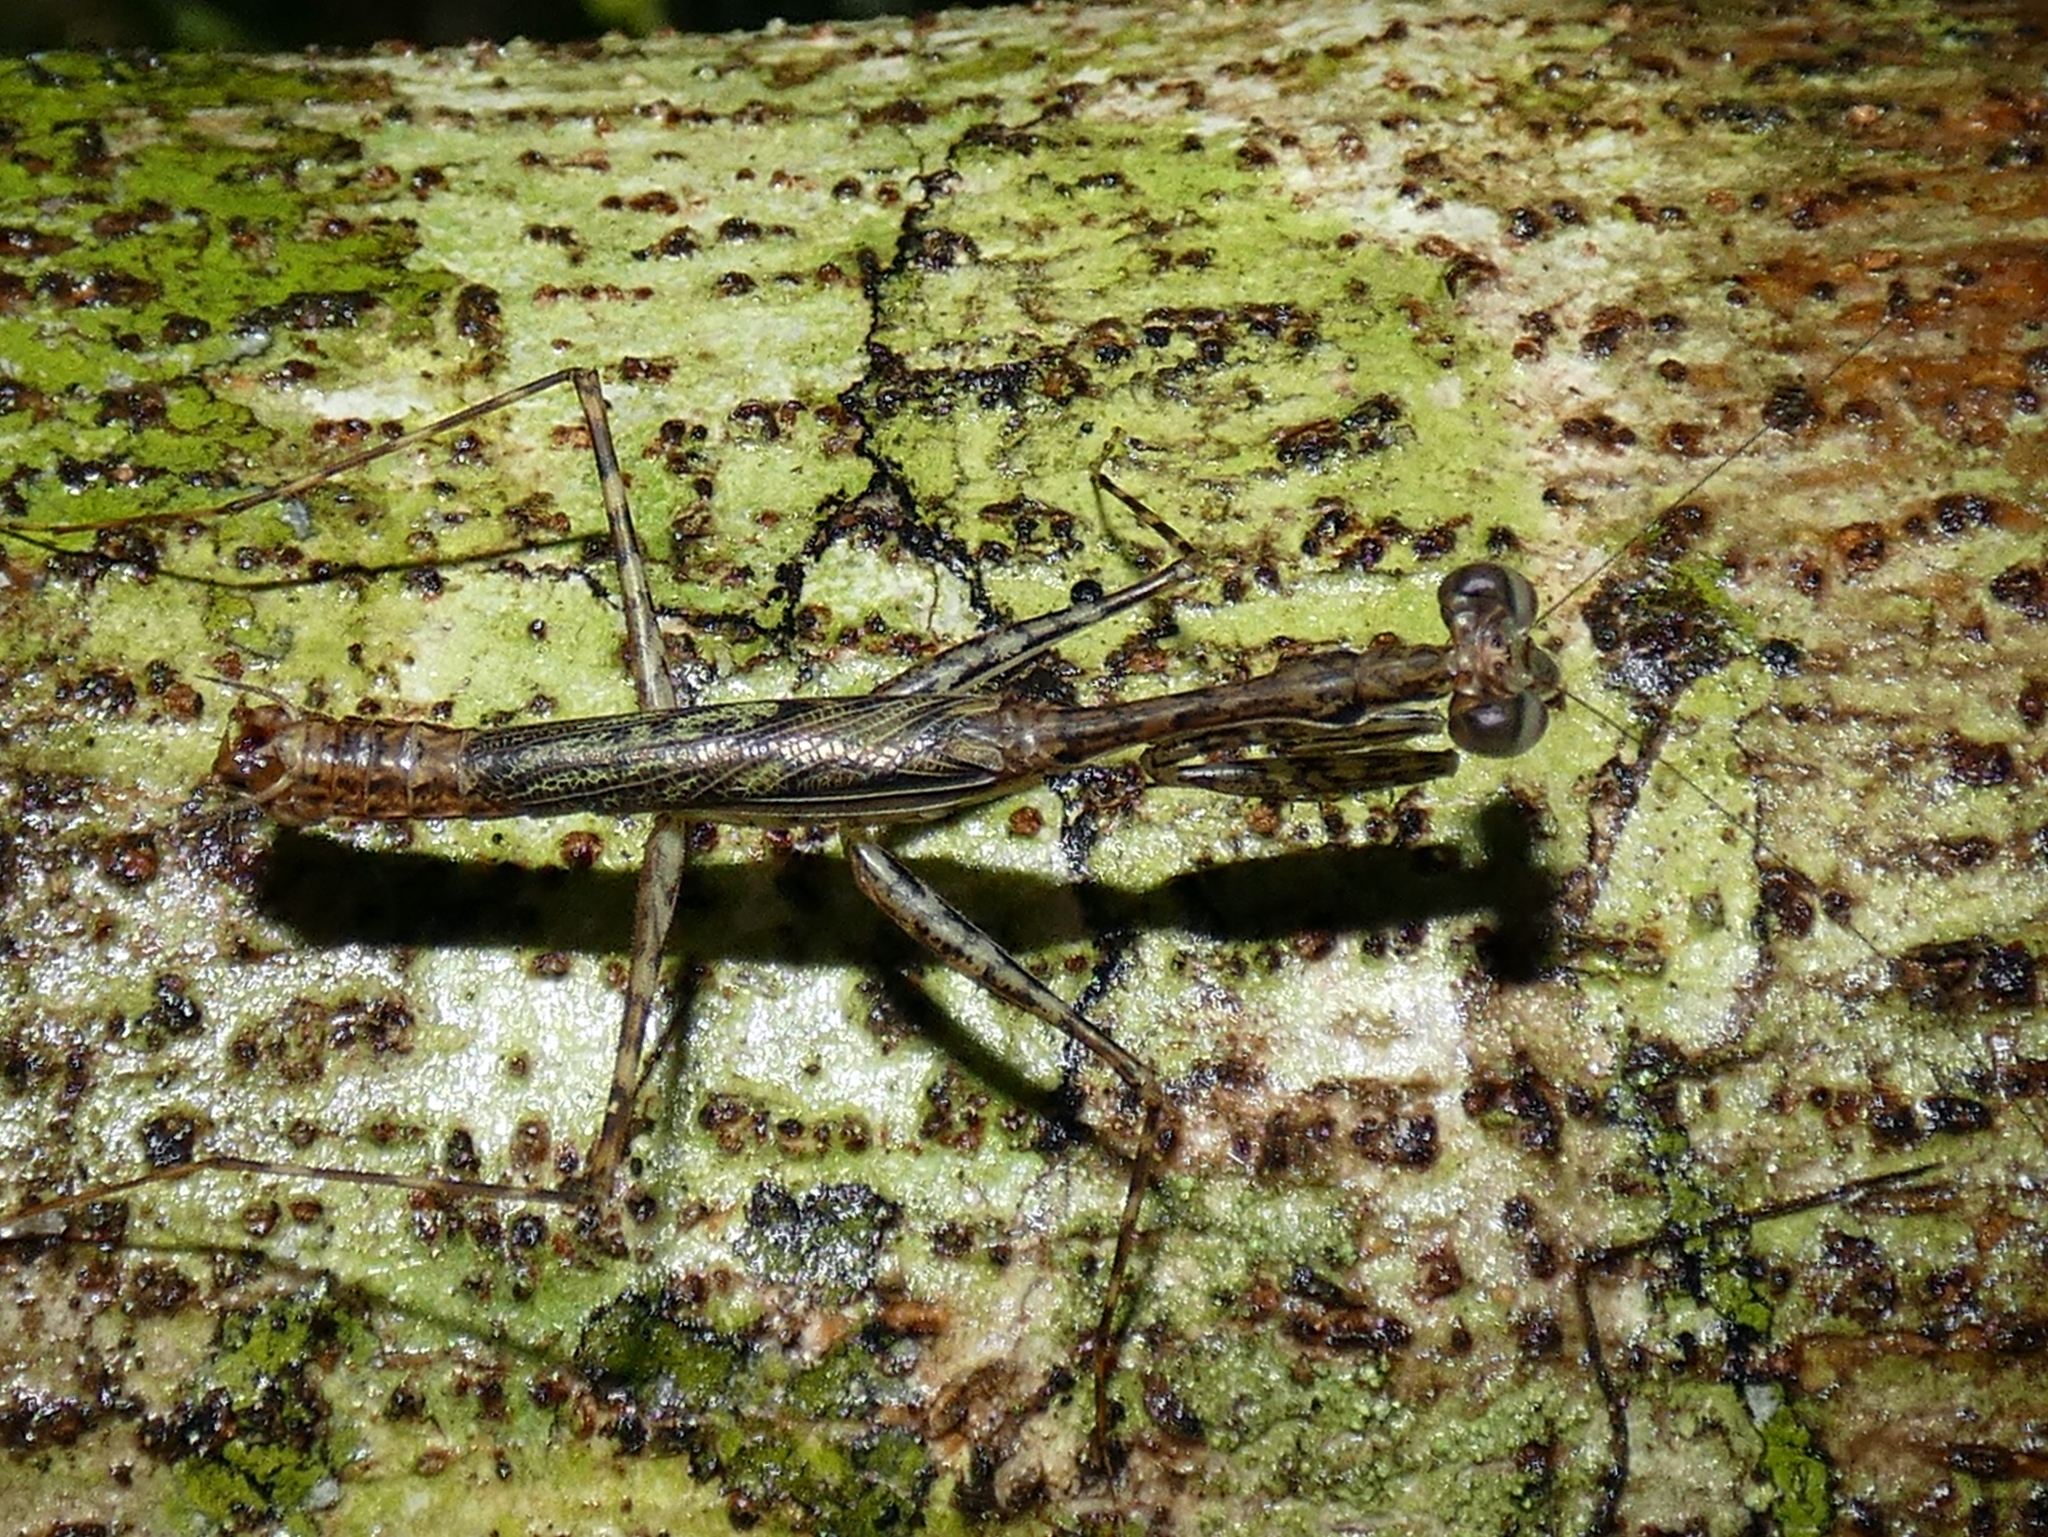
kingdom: Animalia
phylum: Arthropoda
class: Insecta
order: Mantodea
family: Nanomantidae
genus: Ciulfina
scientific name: Ciulfina rentzi
